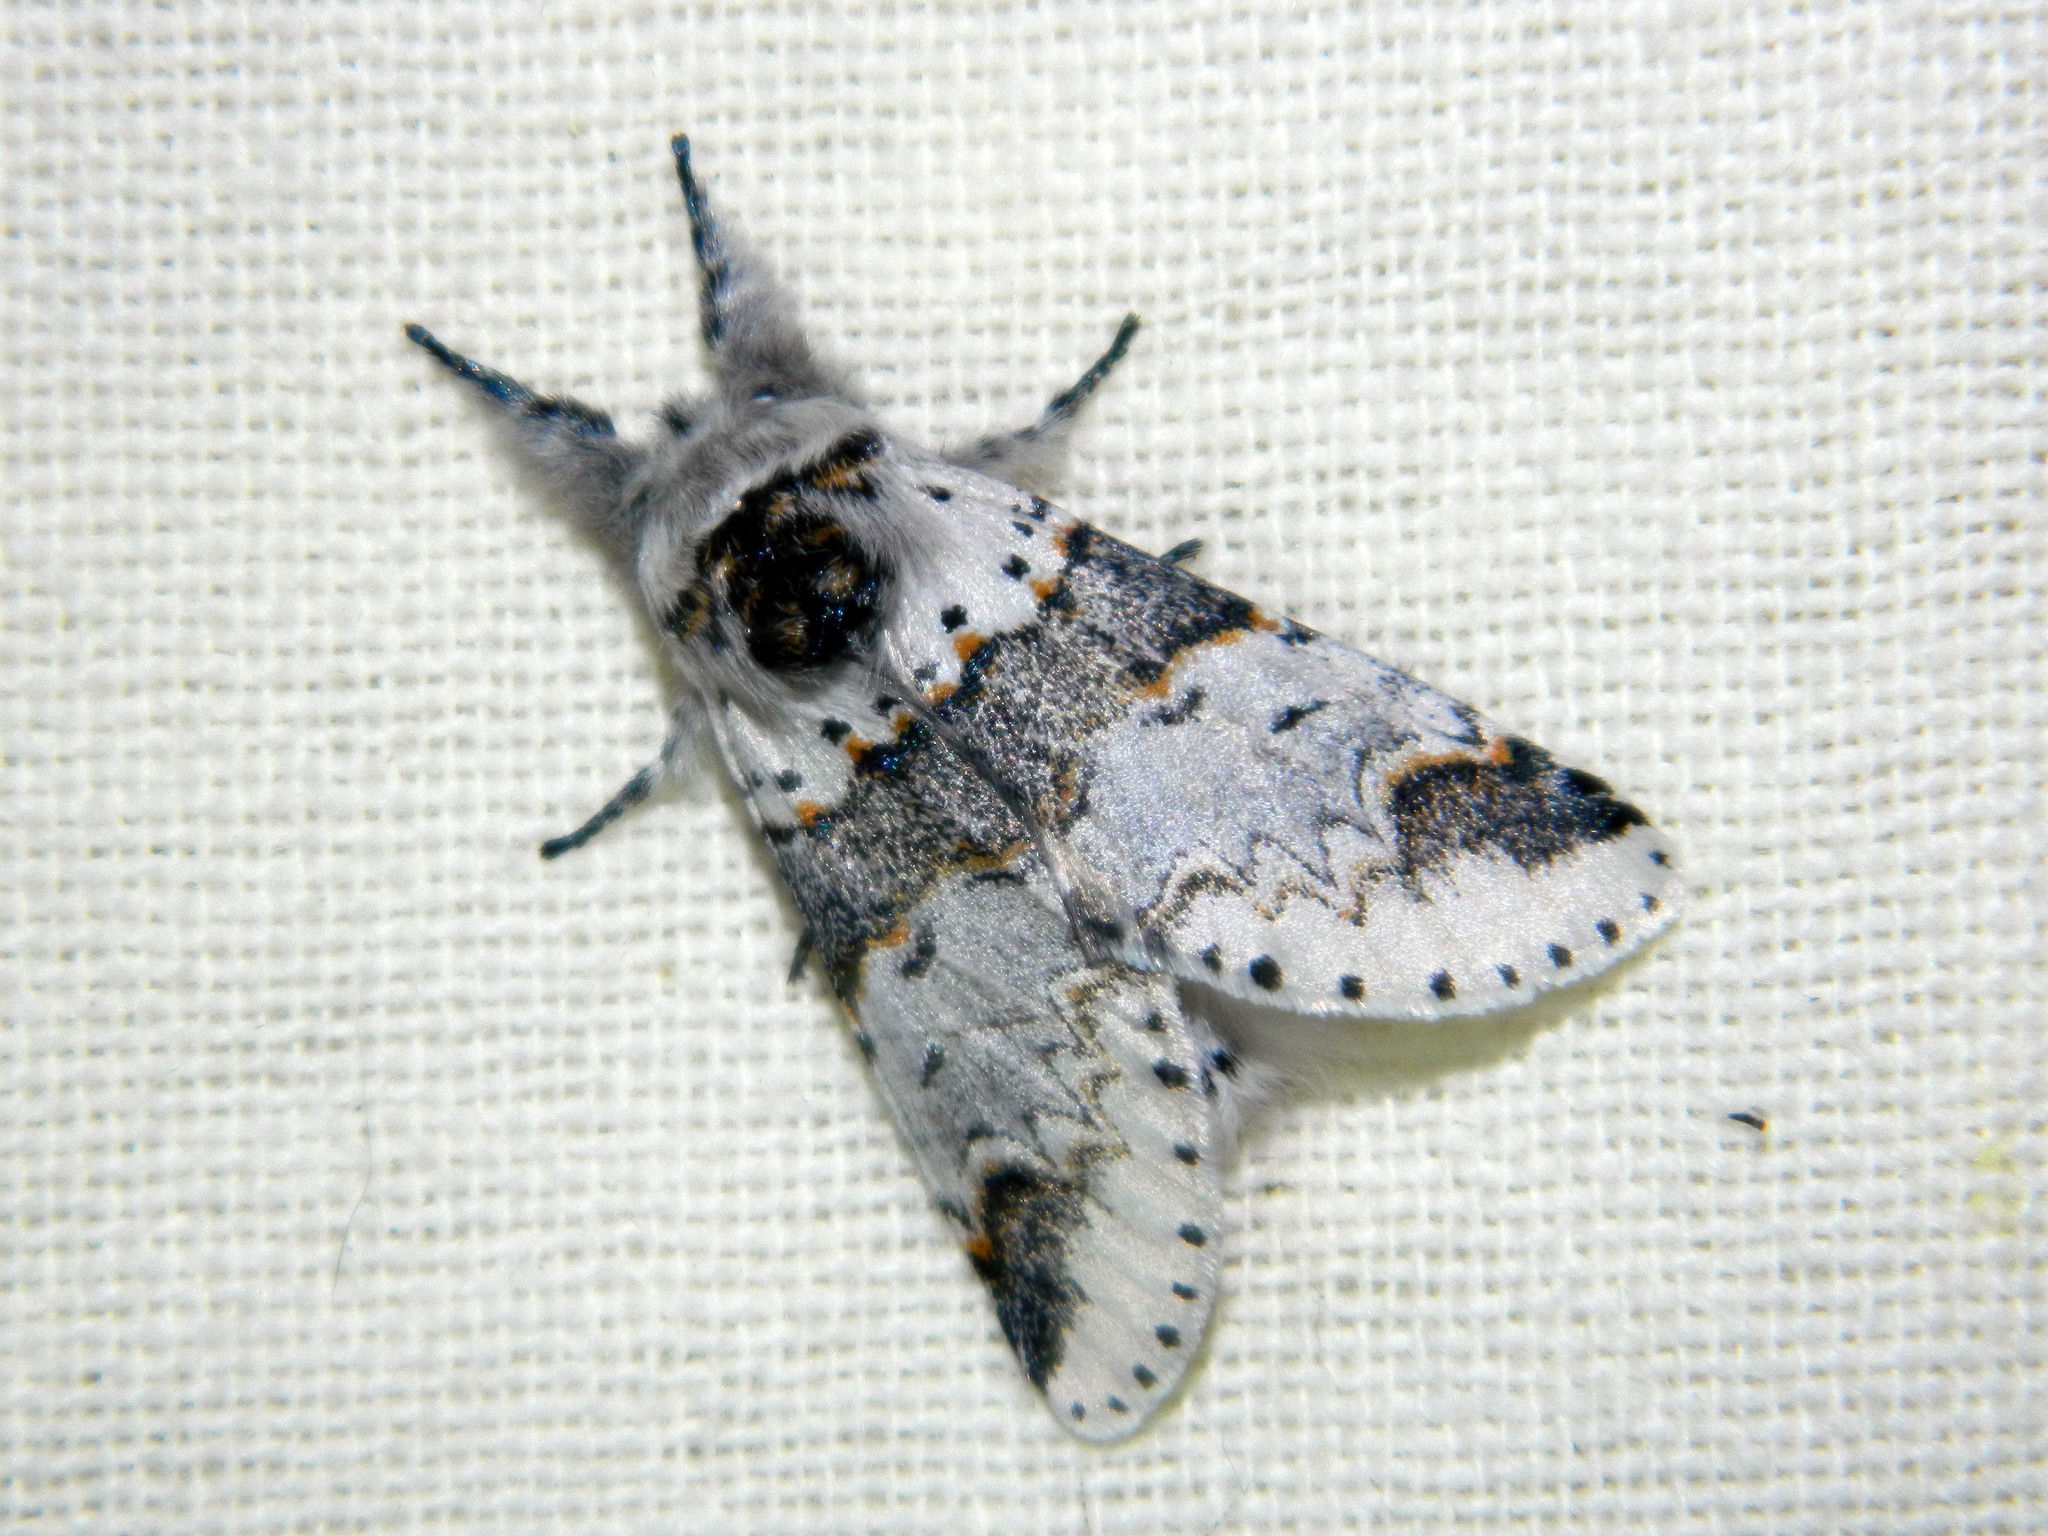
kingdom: Animalia
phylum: Arthropoda
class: Insecta
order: Lepidoptera
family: Notodontidae
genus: Furcula
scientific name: Furcula occidentalis
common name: Western furcula moth
